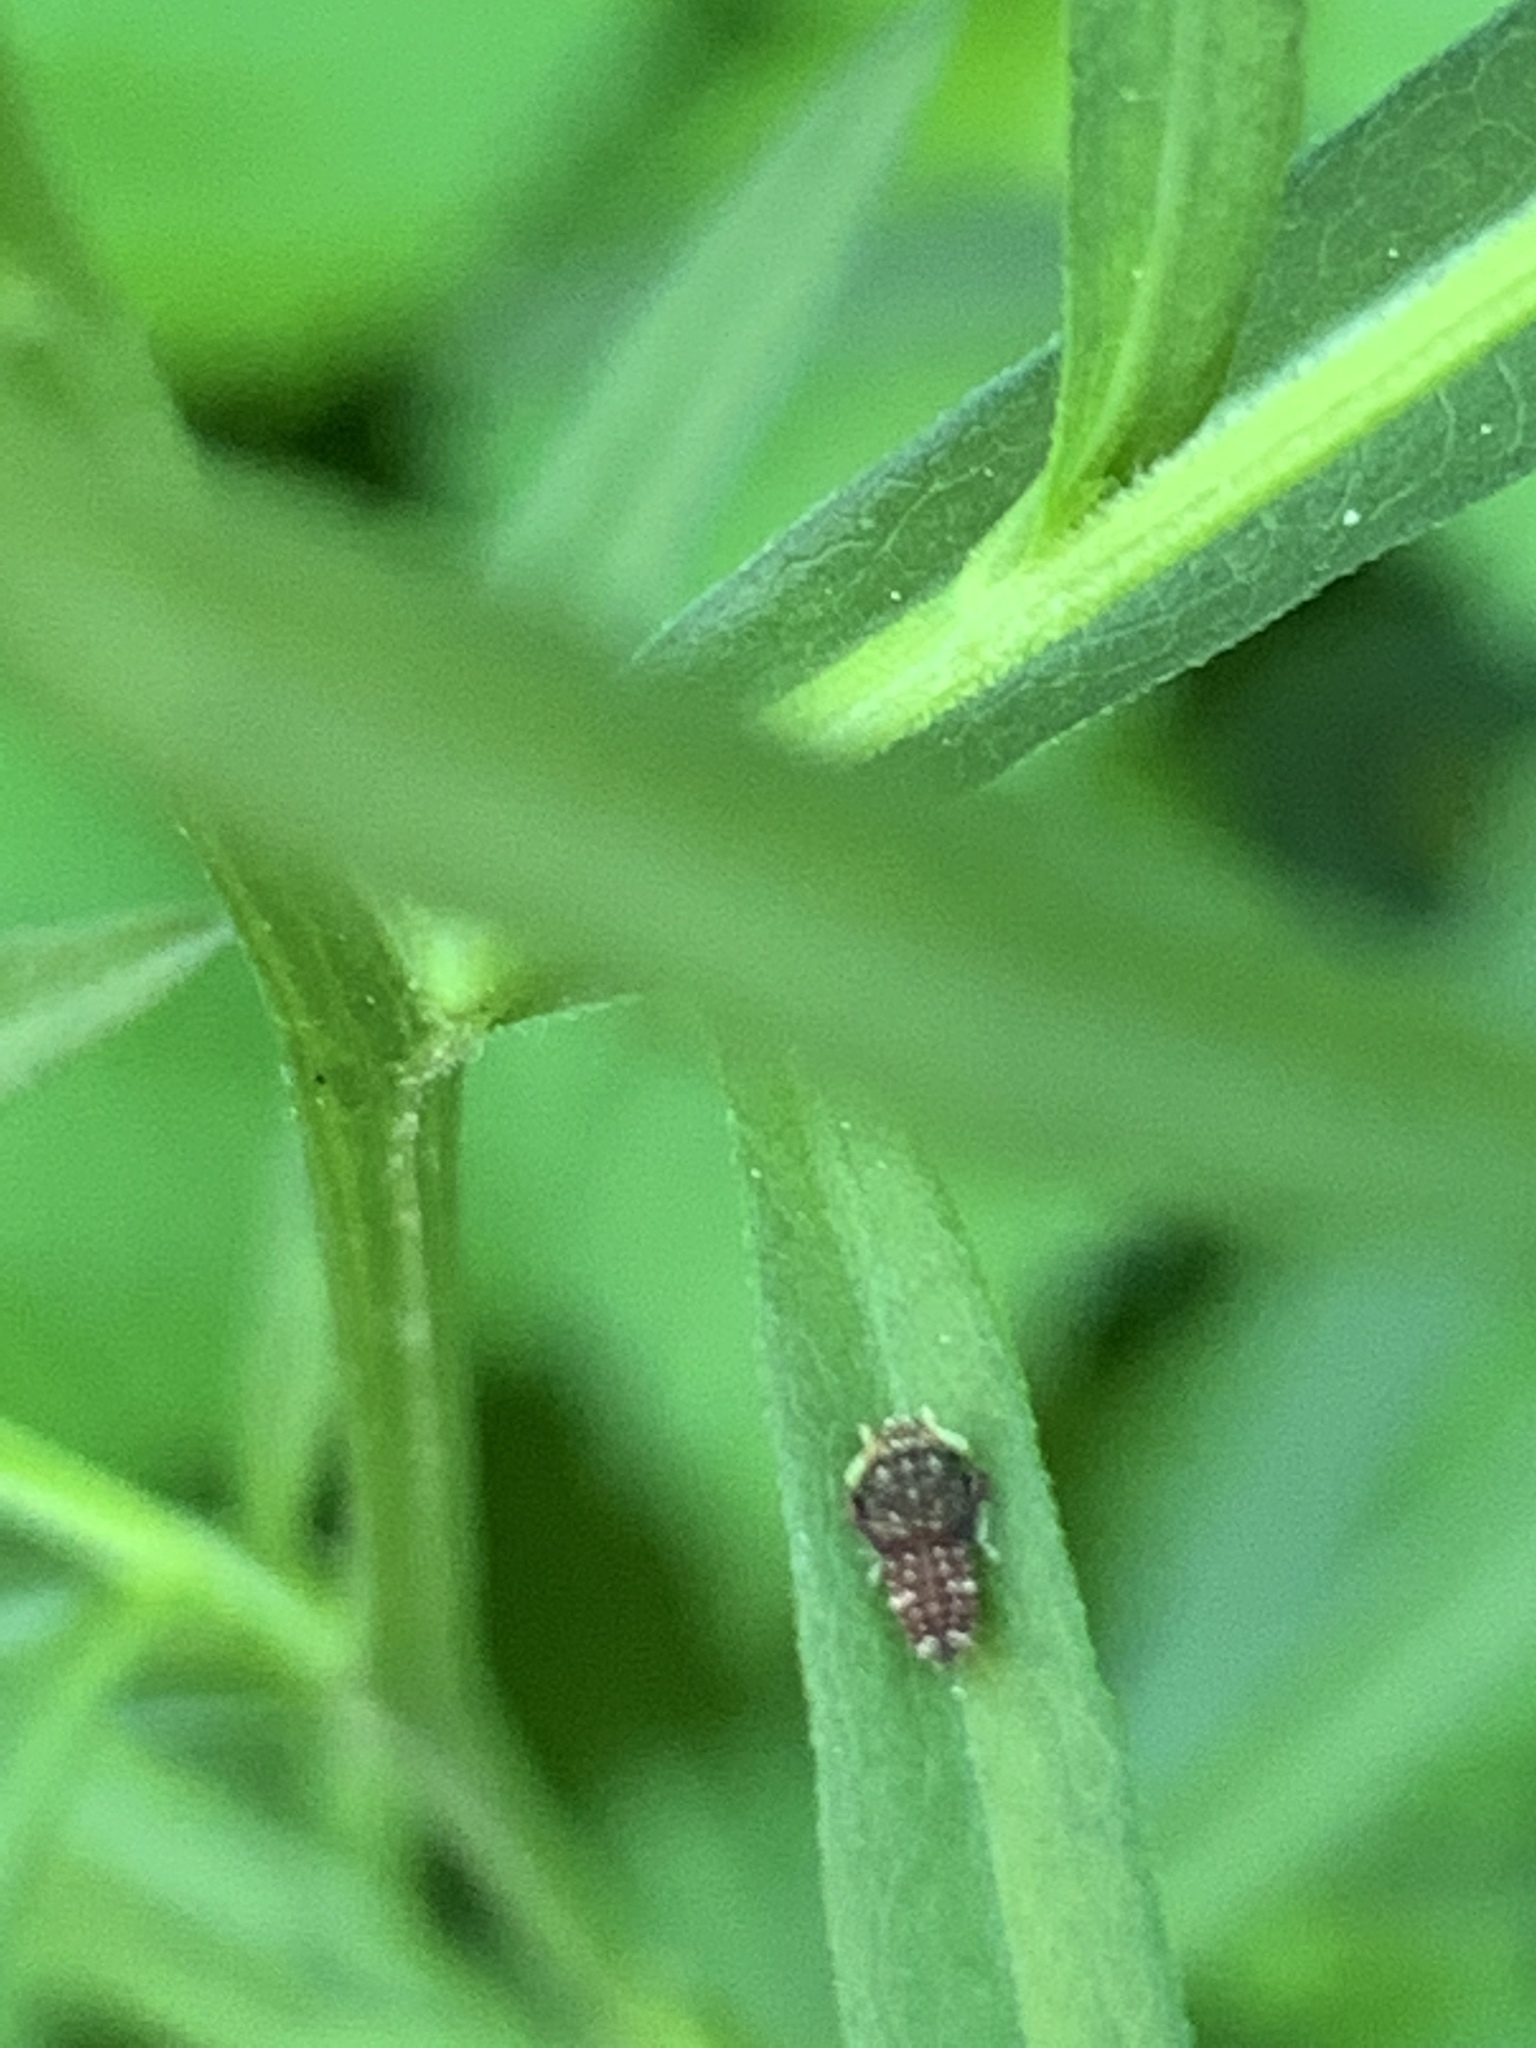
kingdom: Animalia
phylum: Arthropoda
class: Insecta
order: Hemiptera
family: Cicadellidae
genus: Orientus
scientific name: Orientus ishidae
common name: Japanese leafhopper
